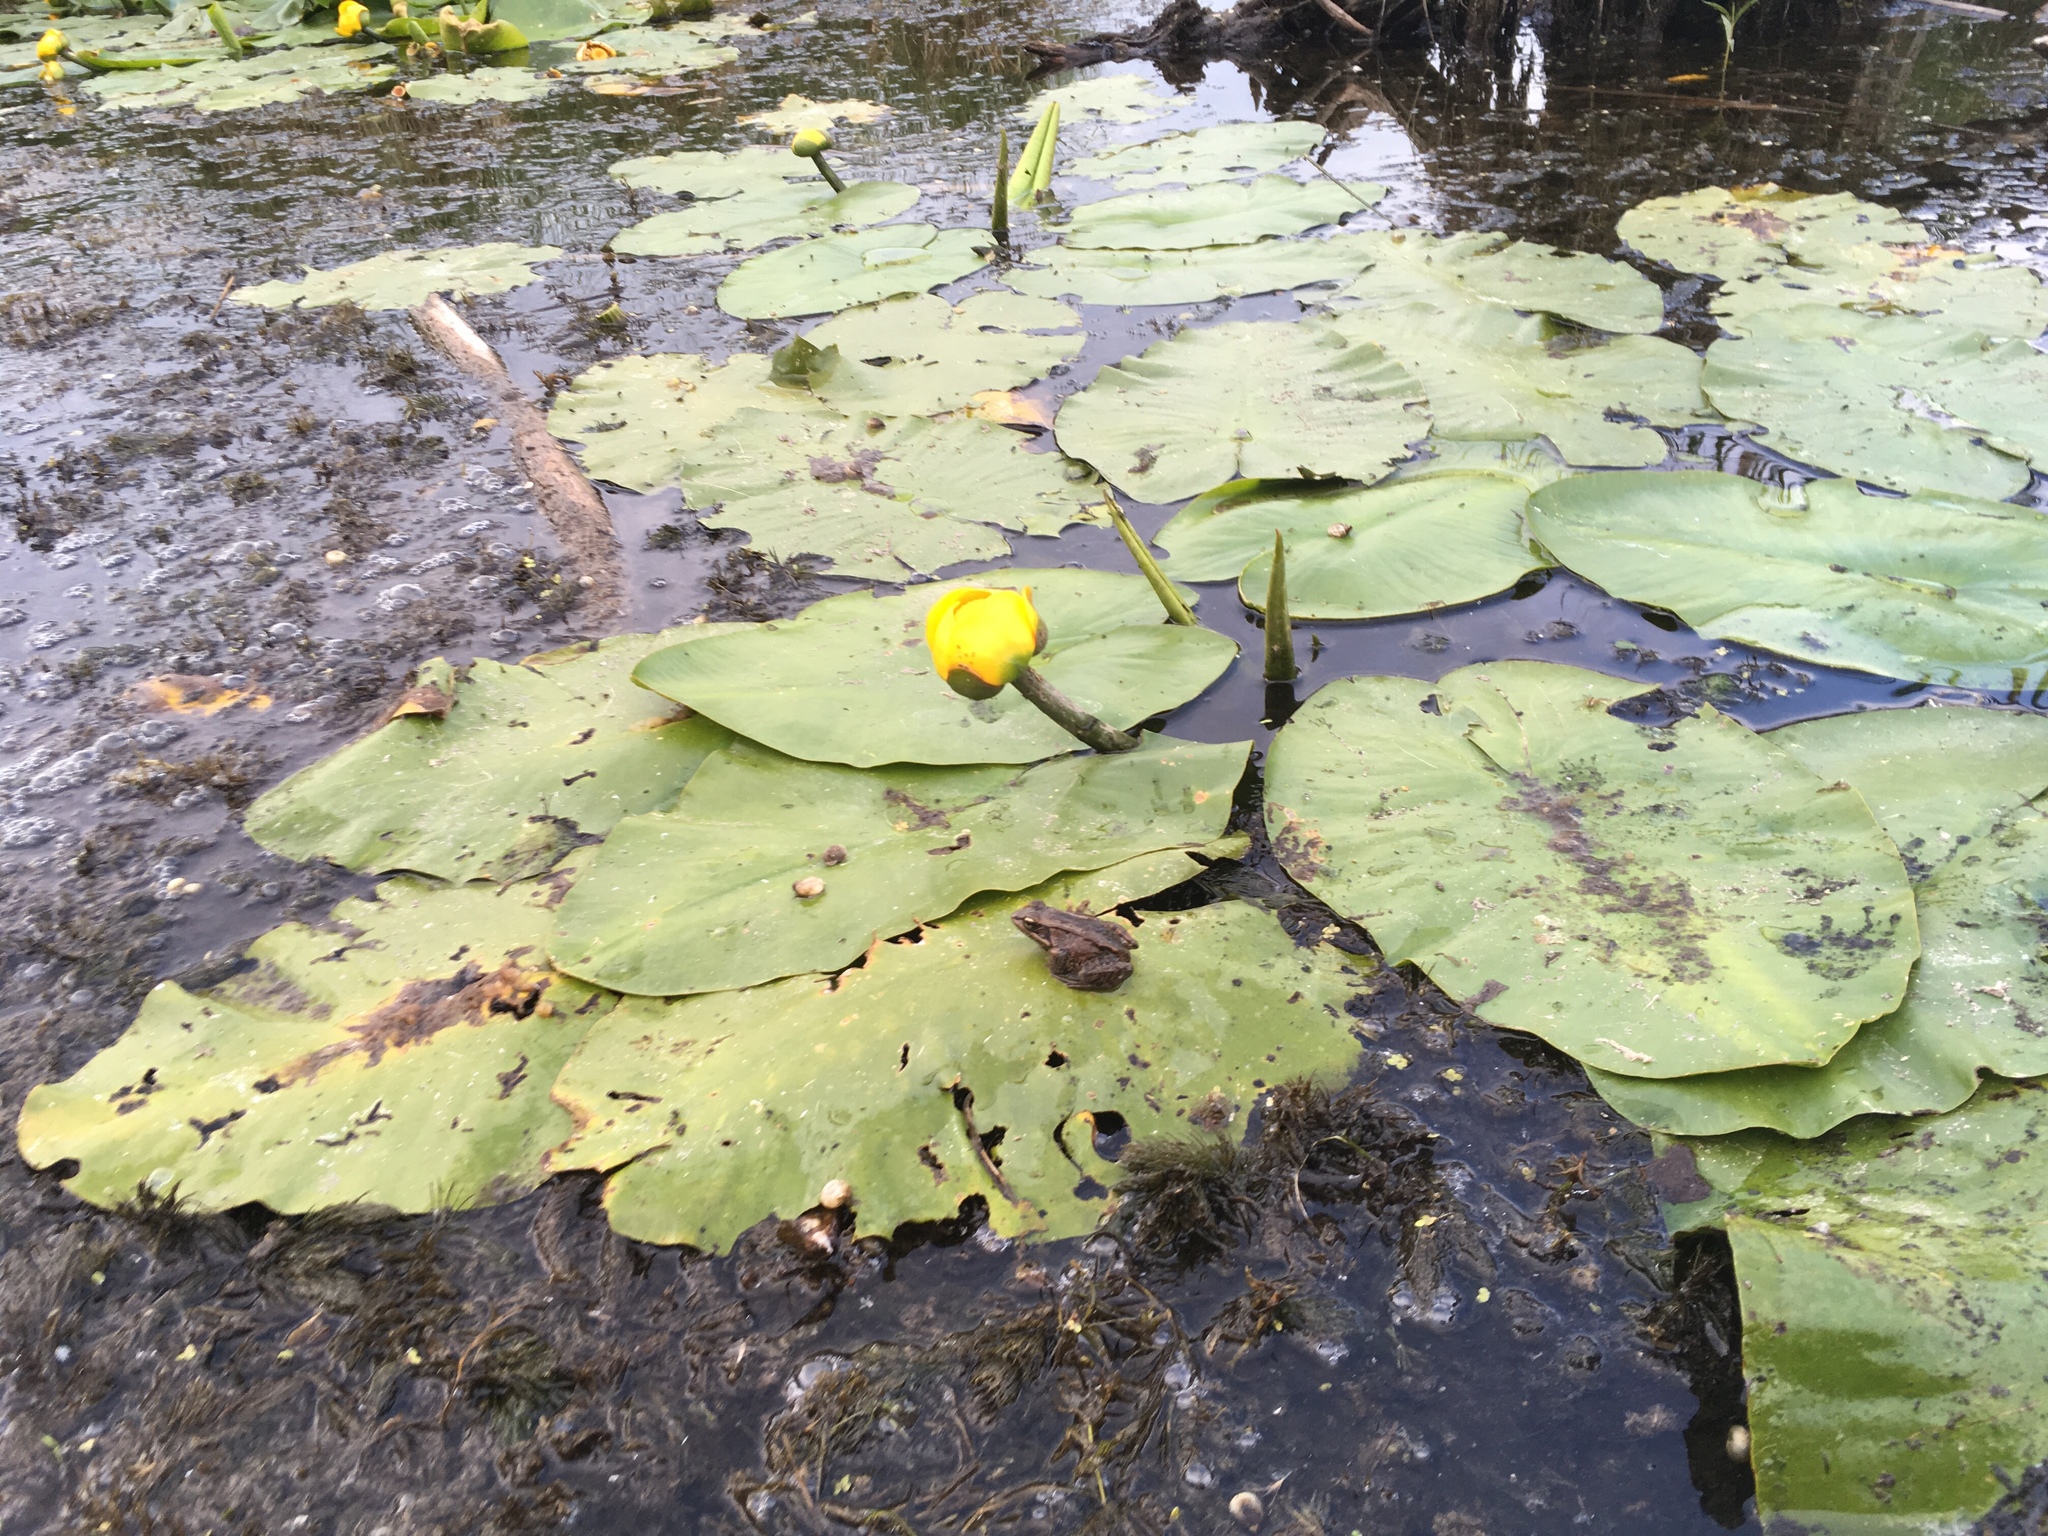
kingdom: Plantae
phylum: Tracheophyta
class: Magnoliopsida
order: Nymphaeales
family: Nymphaeaceae
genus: Nuphar
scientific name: Nuphar variegata
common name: Beaver-root
